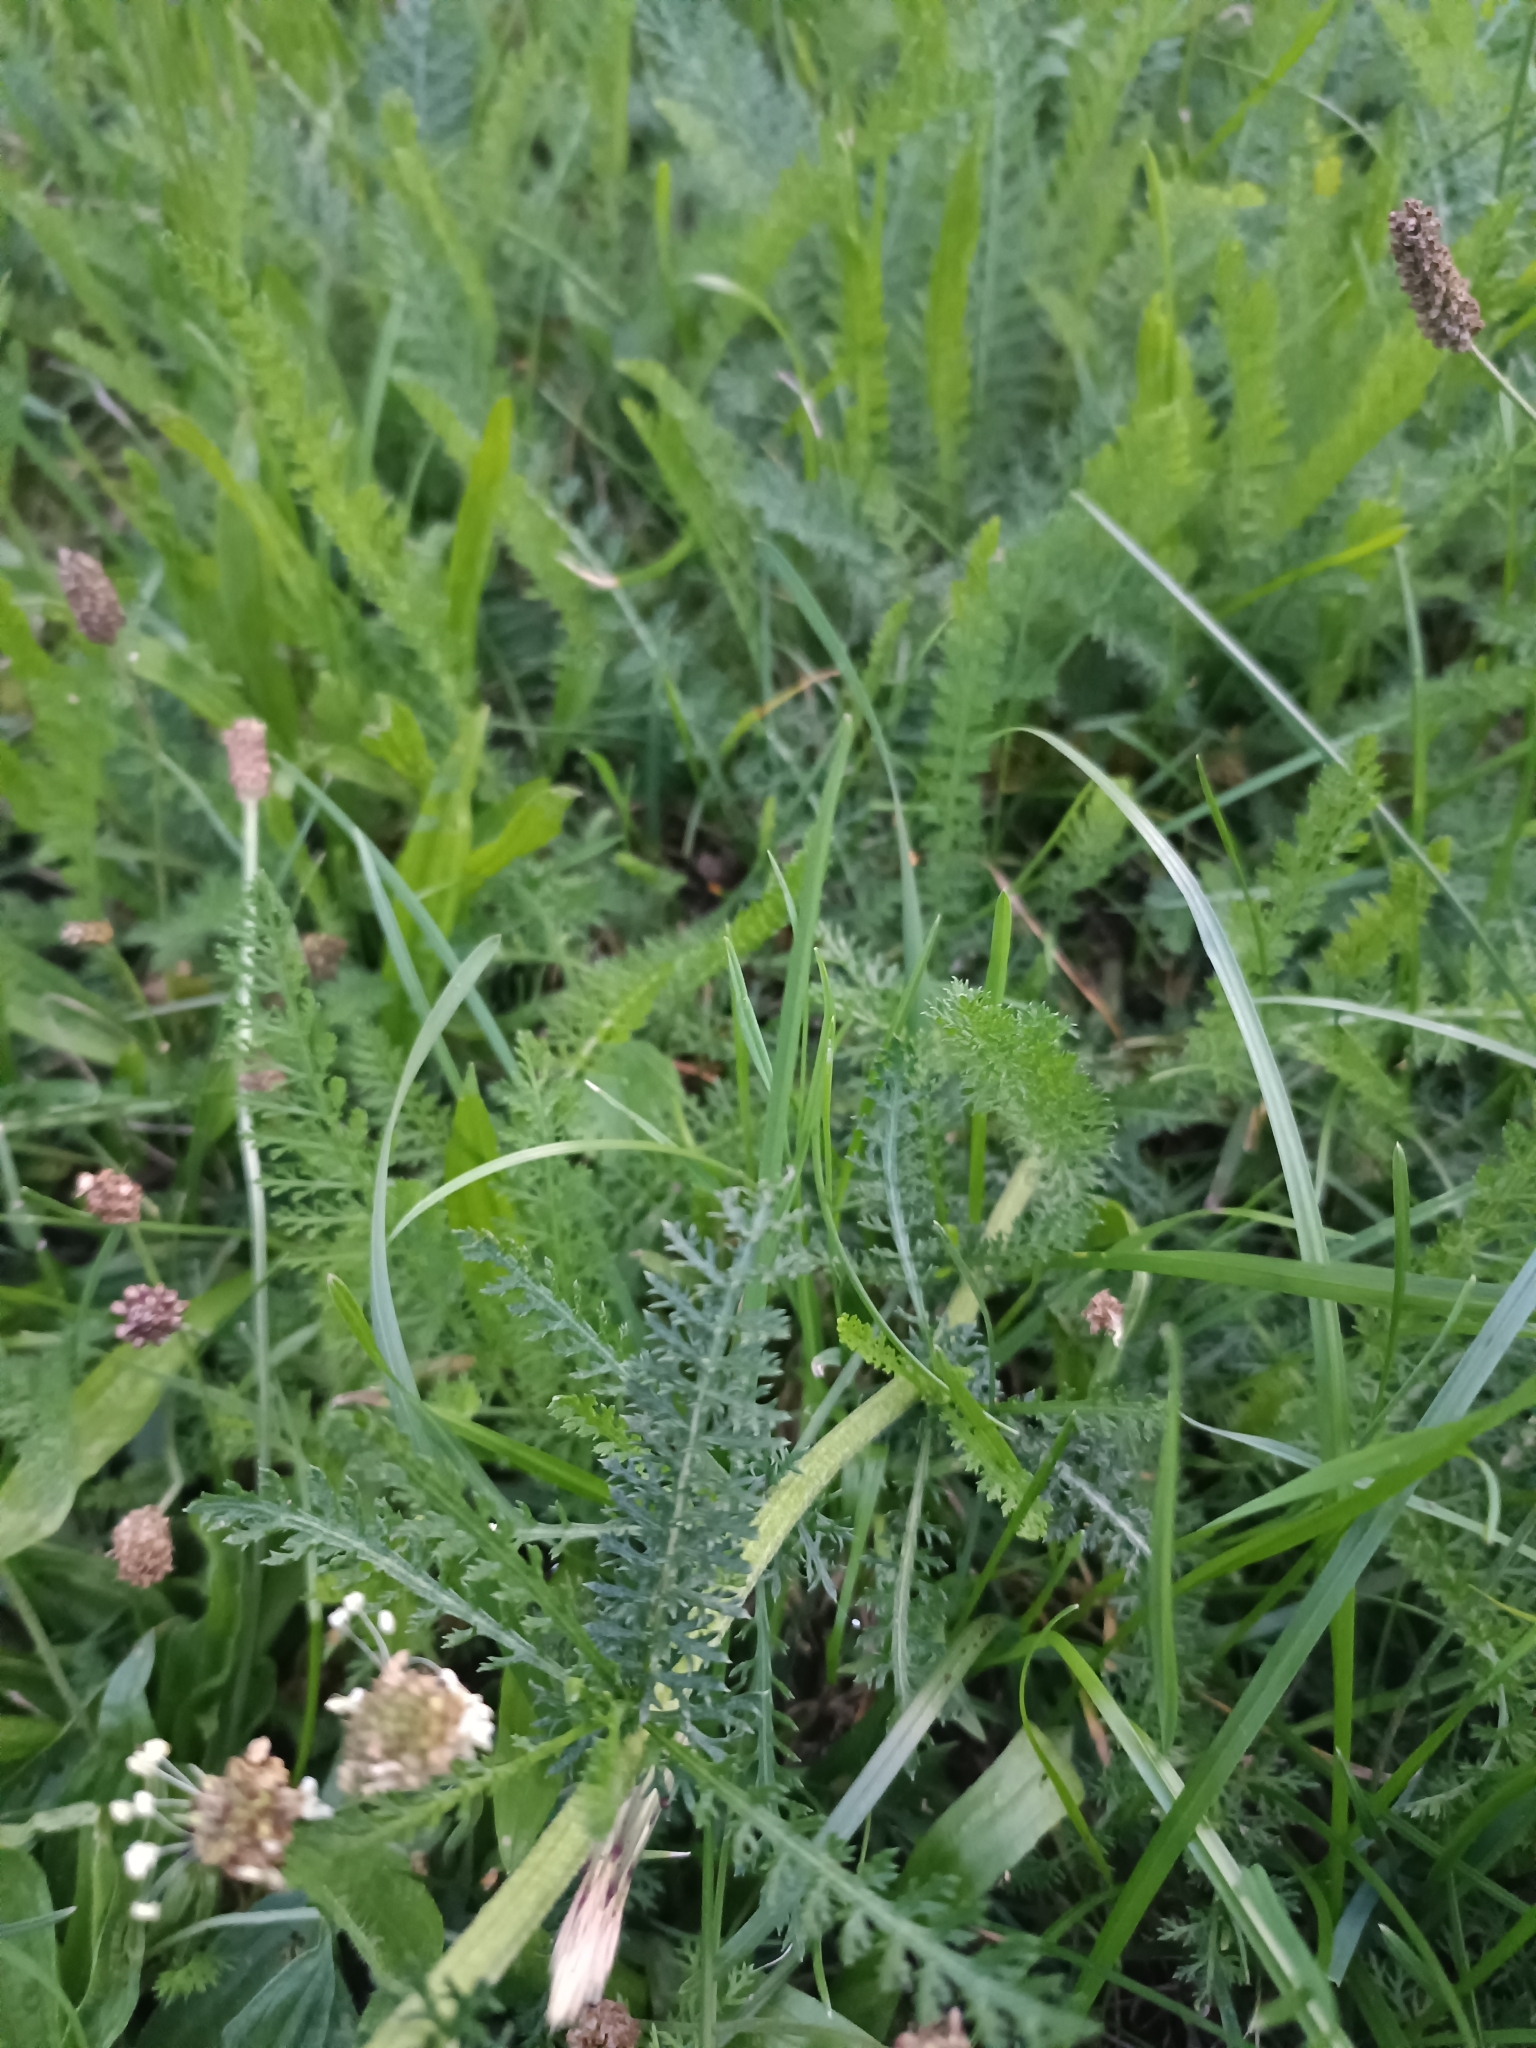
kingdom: Plantae
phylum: Tracheophyta
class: Magnoliopsida
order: Asterales
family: Asteraceae
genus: Achillea
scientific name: Achillea millefolium
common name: Yarrow
